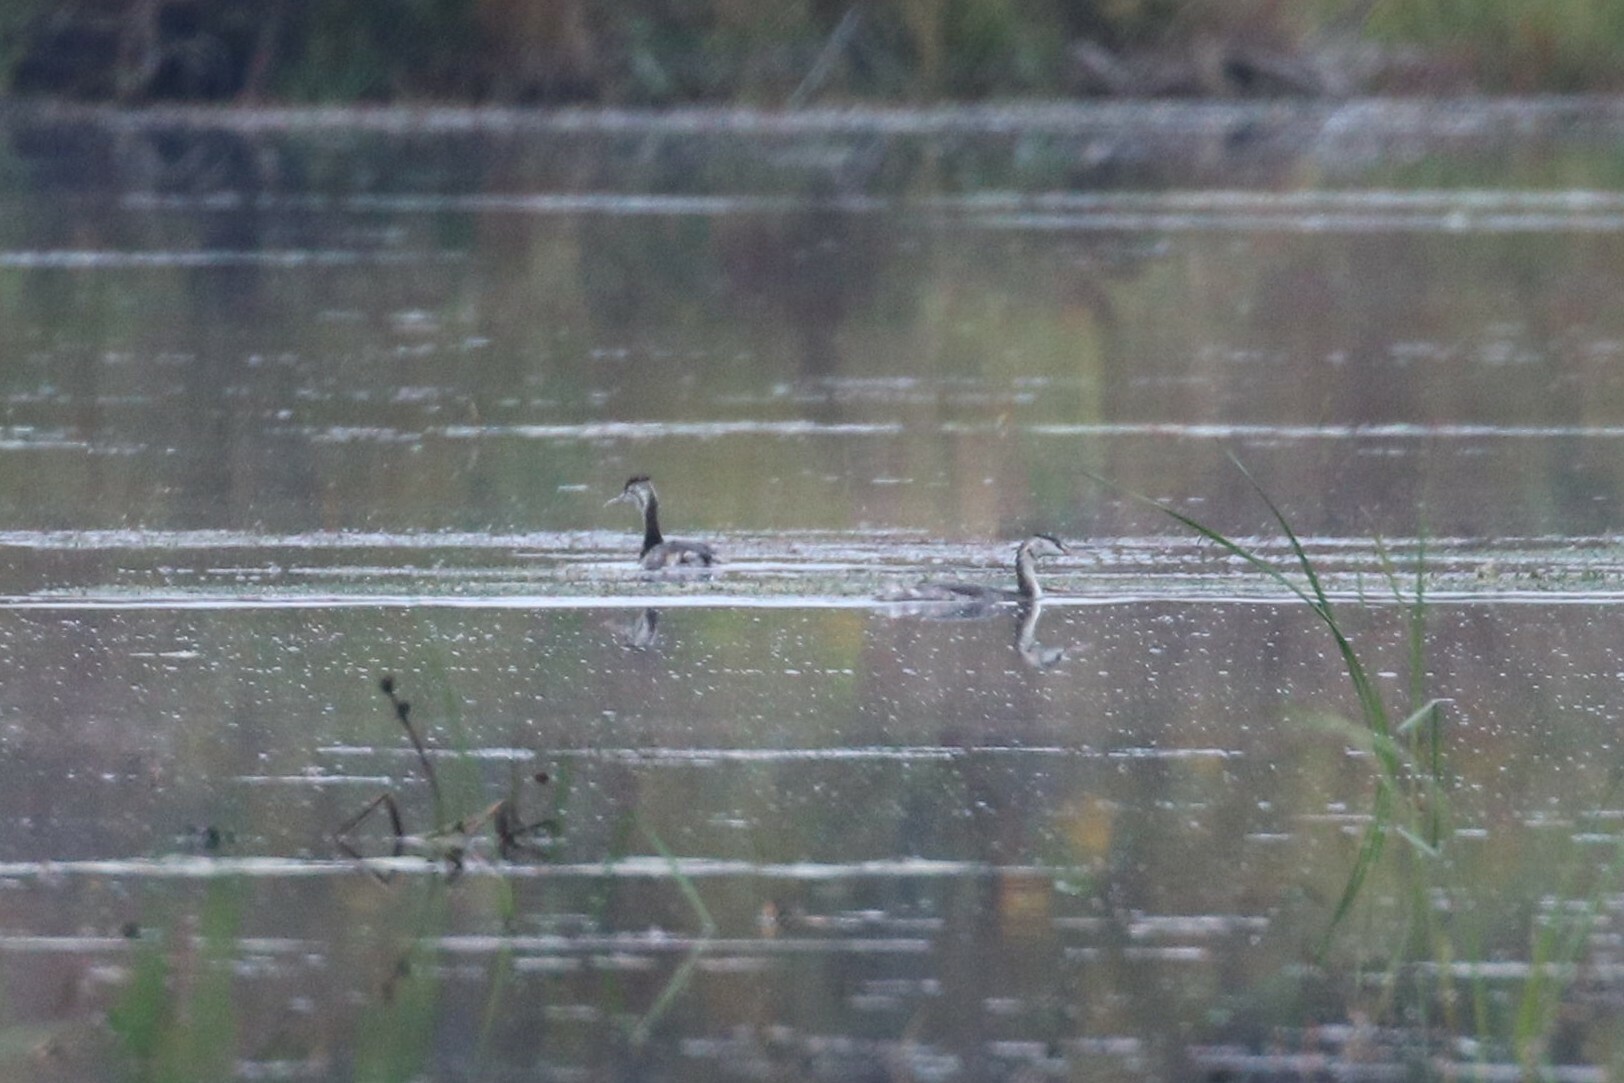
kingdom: Animalia
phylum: Chordata
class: Aves
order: Podicipediformes
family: Podicipedidae
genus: Podiceps
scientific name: Podiceps cristatus
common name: Great crested grebe
